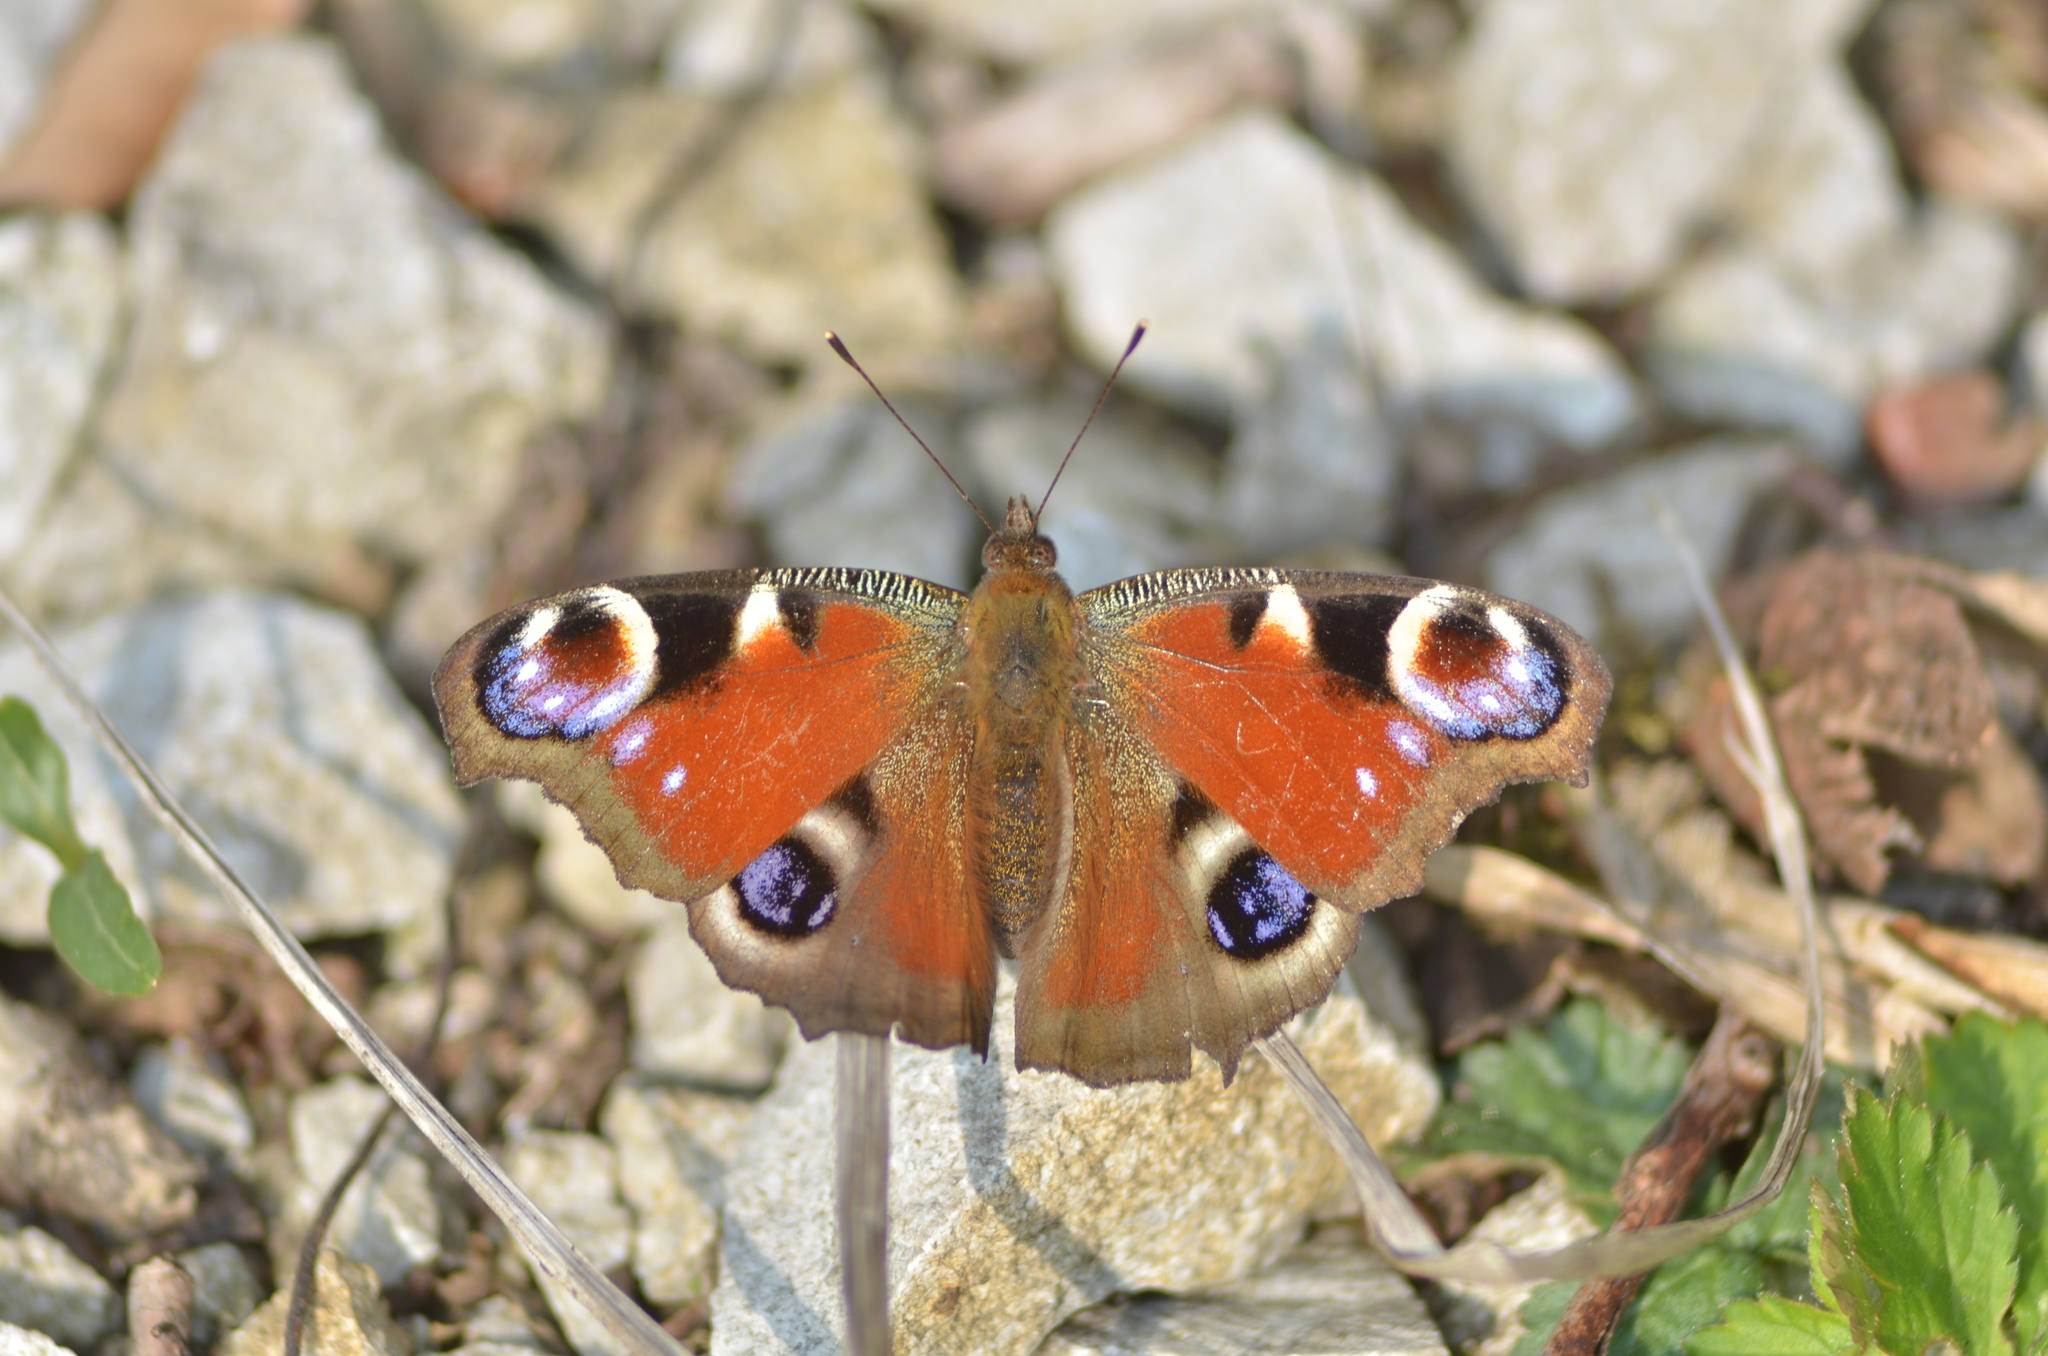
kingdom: Animalia
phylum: Arthropoda
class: Insecta
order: Lepidoptera
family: Nymphalidae
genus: Aglais
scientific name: Aglais io
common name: Peacock
